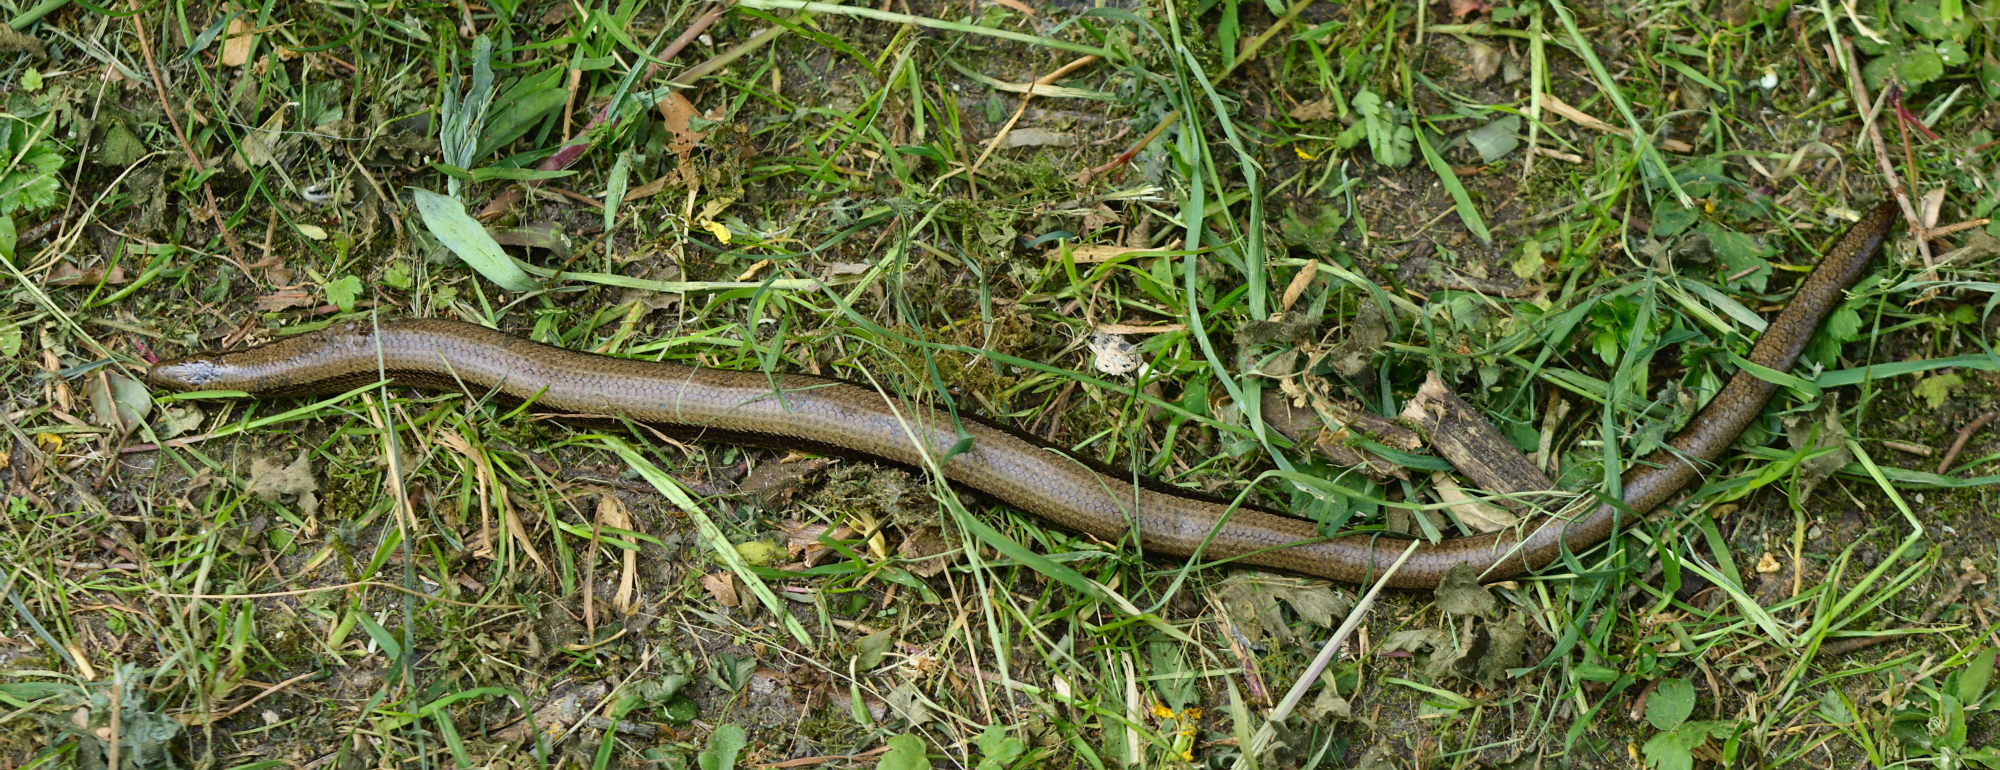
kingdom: Animalia
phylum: Chordata
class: Squamata
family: Anguidae
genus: Anguis
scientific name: Anguis fragilis
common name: Slow worm
